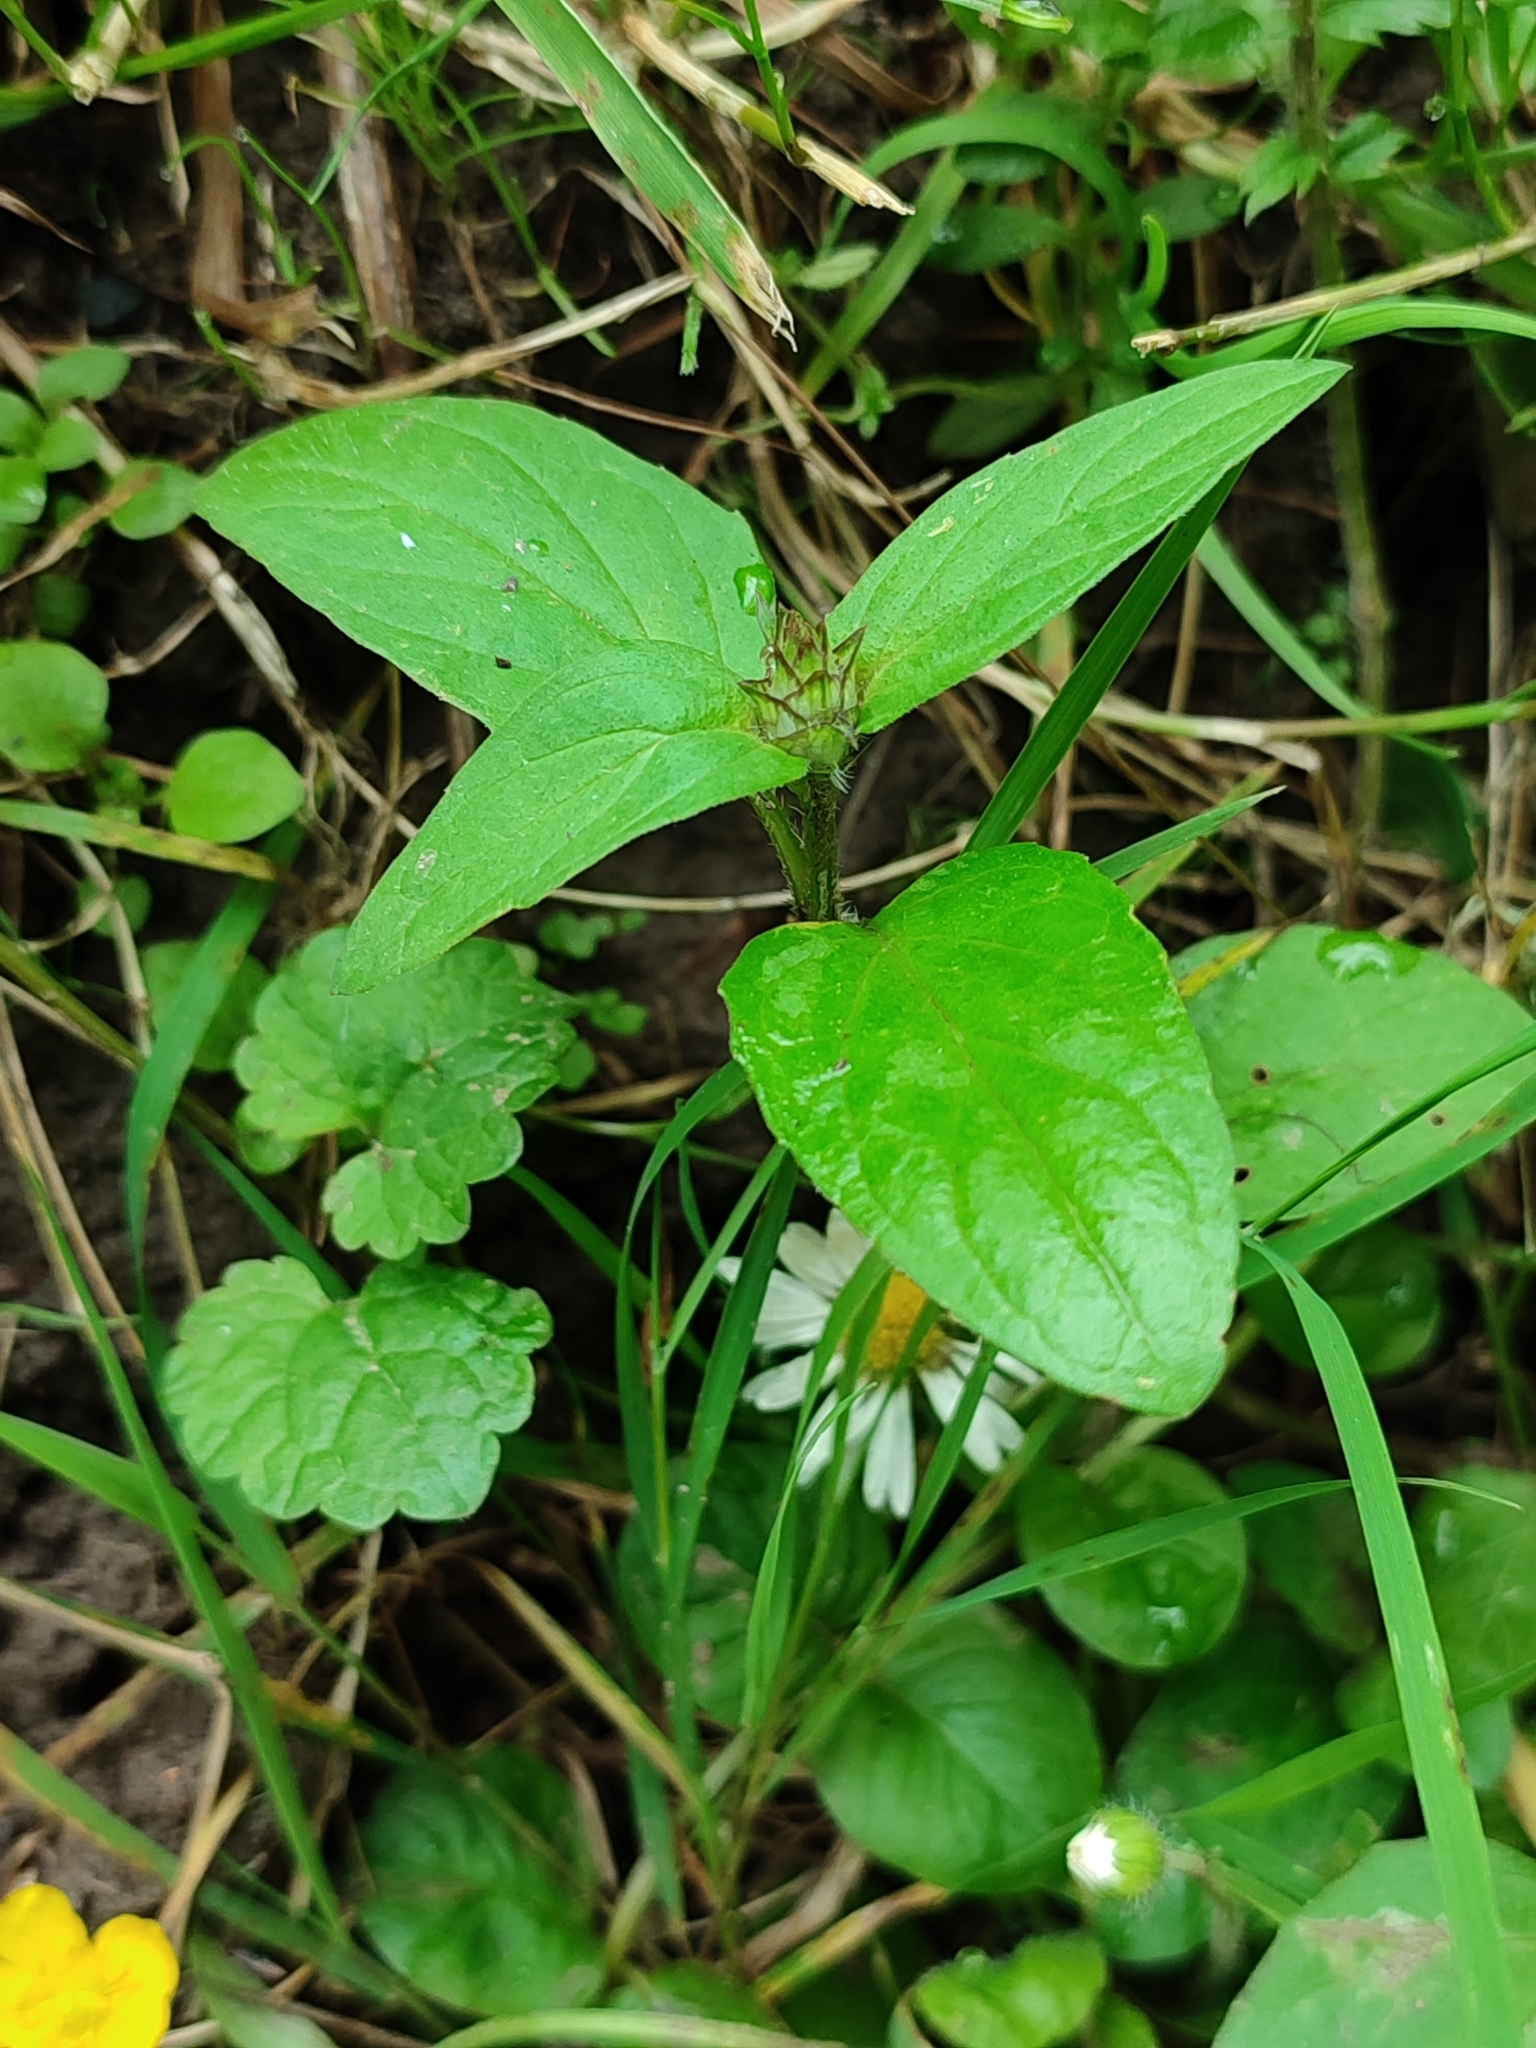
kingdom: Plantae
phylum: Tracheophyta
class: Magnoliopsida
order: Lamiales
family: Lamiaceae
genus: Prunella
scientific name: Prunella vulgaris
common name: Heal-all
